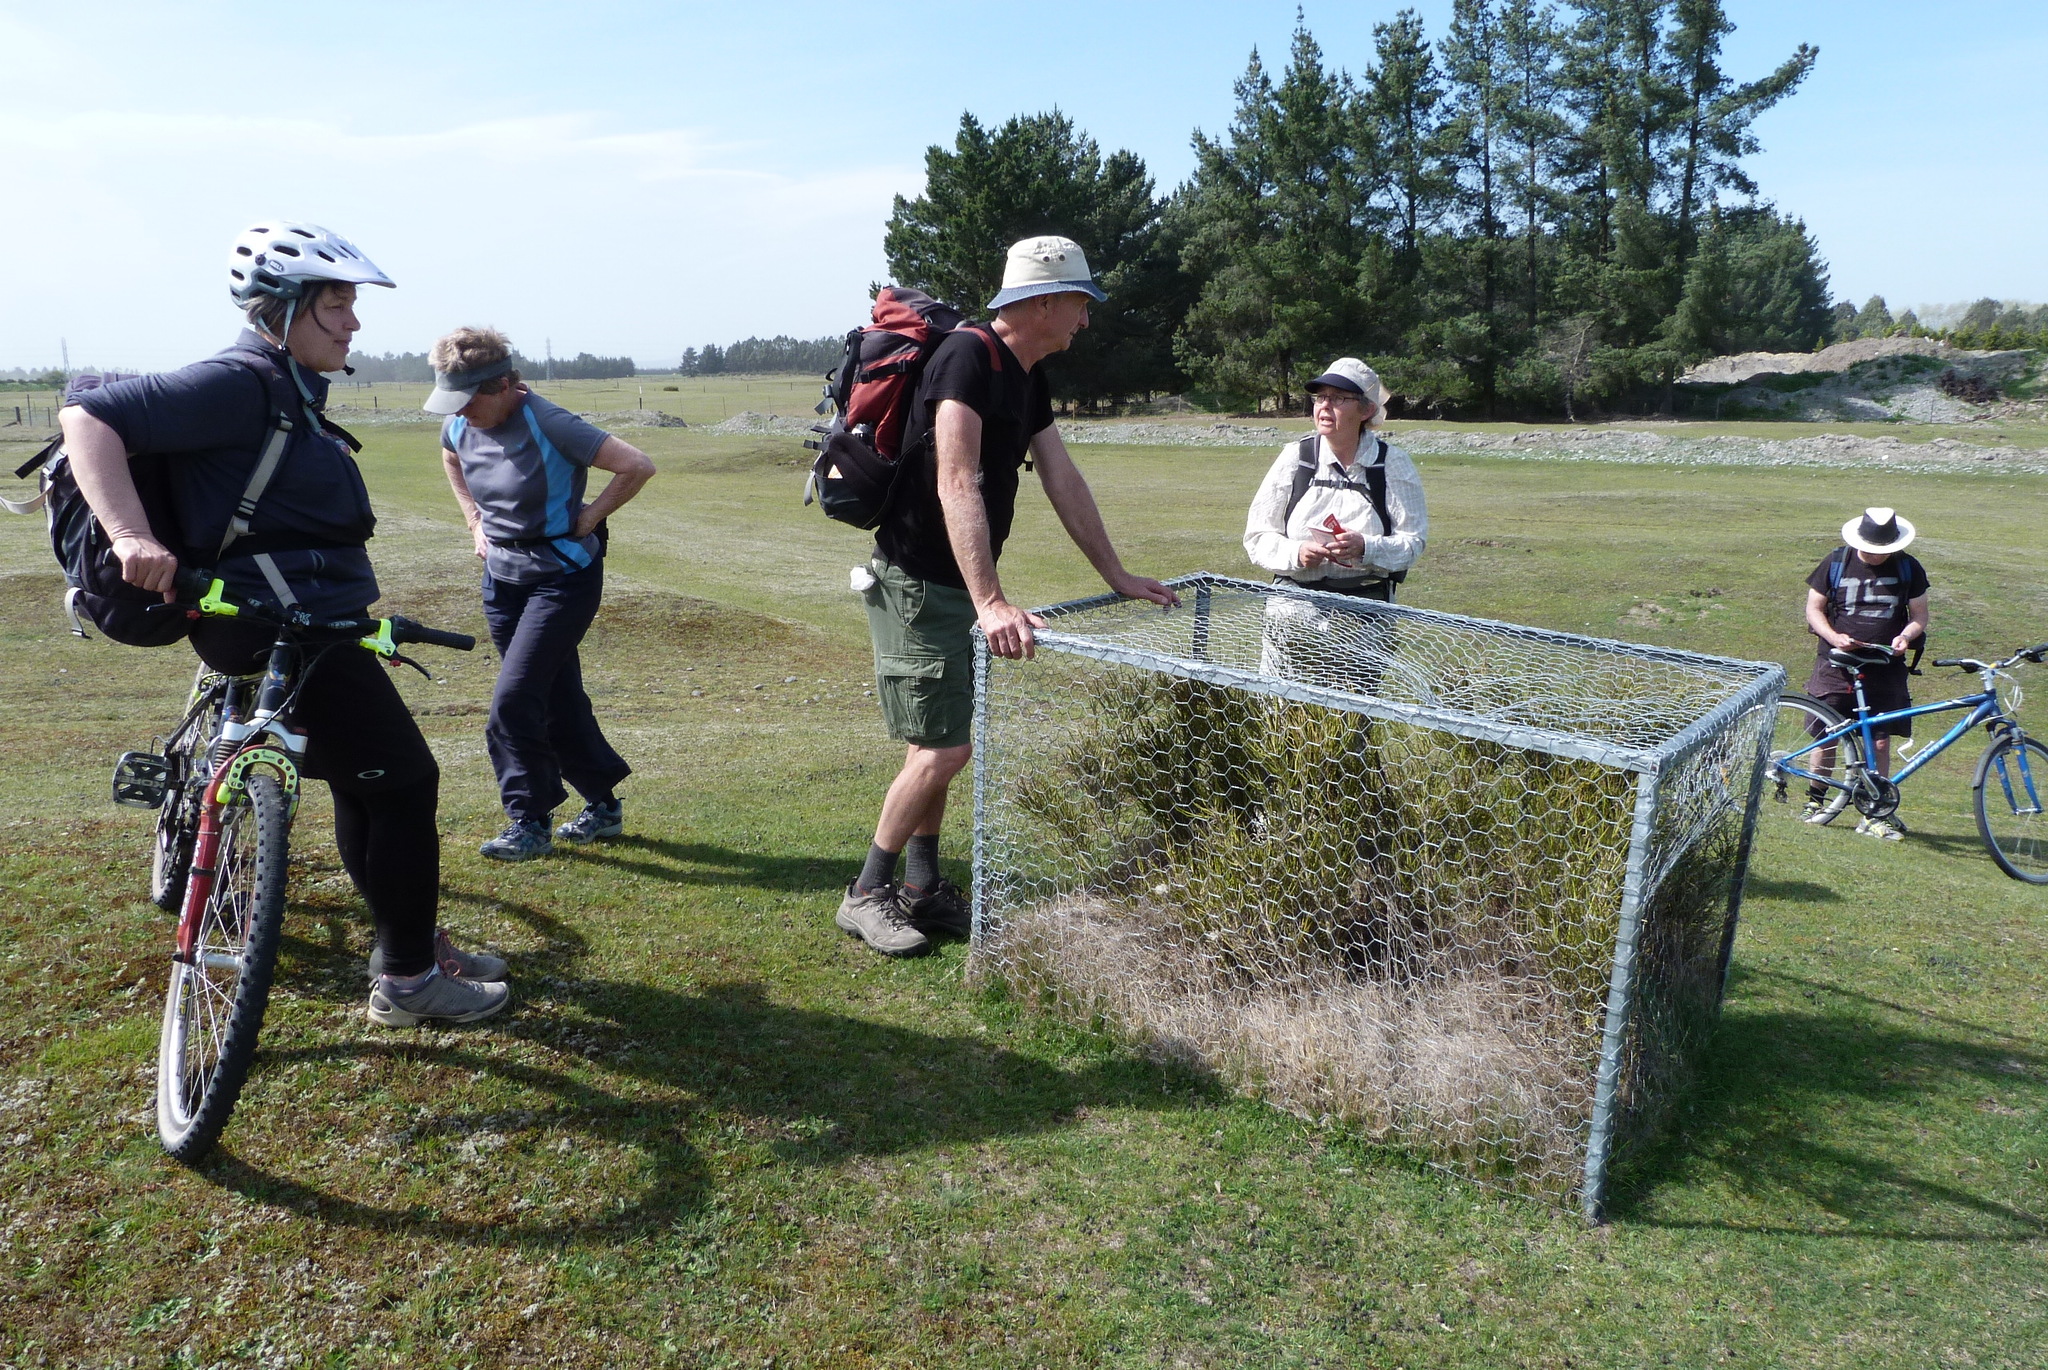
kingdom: Plantae
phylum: Tracheophyta
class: Magnoliopsida
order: Fabales
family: Fabaceae
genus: Carmichaelia
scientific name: Carmichaelia australis
